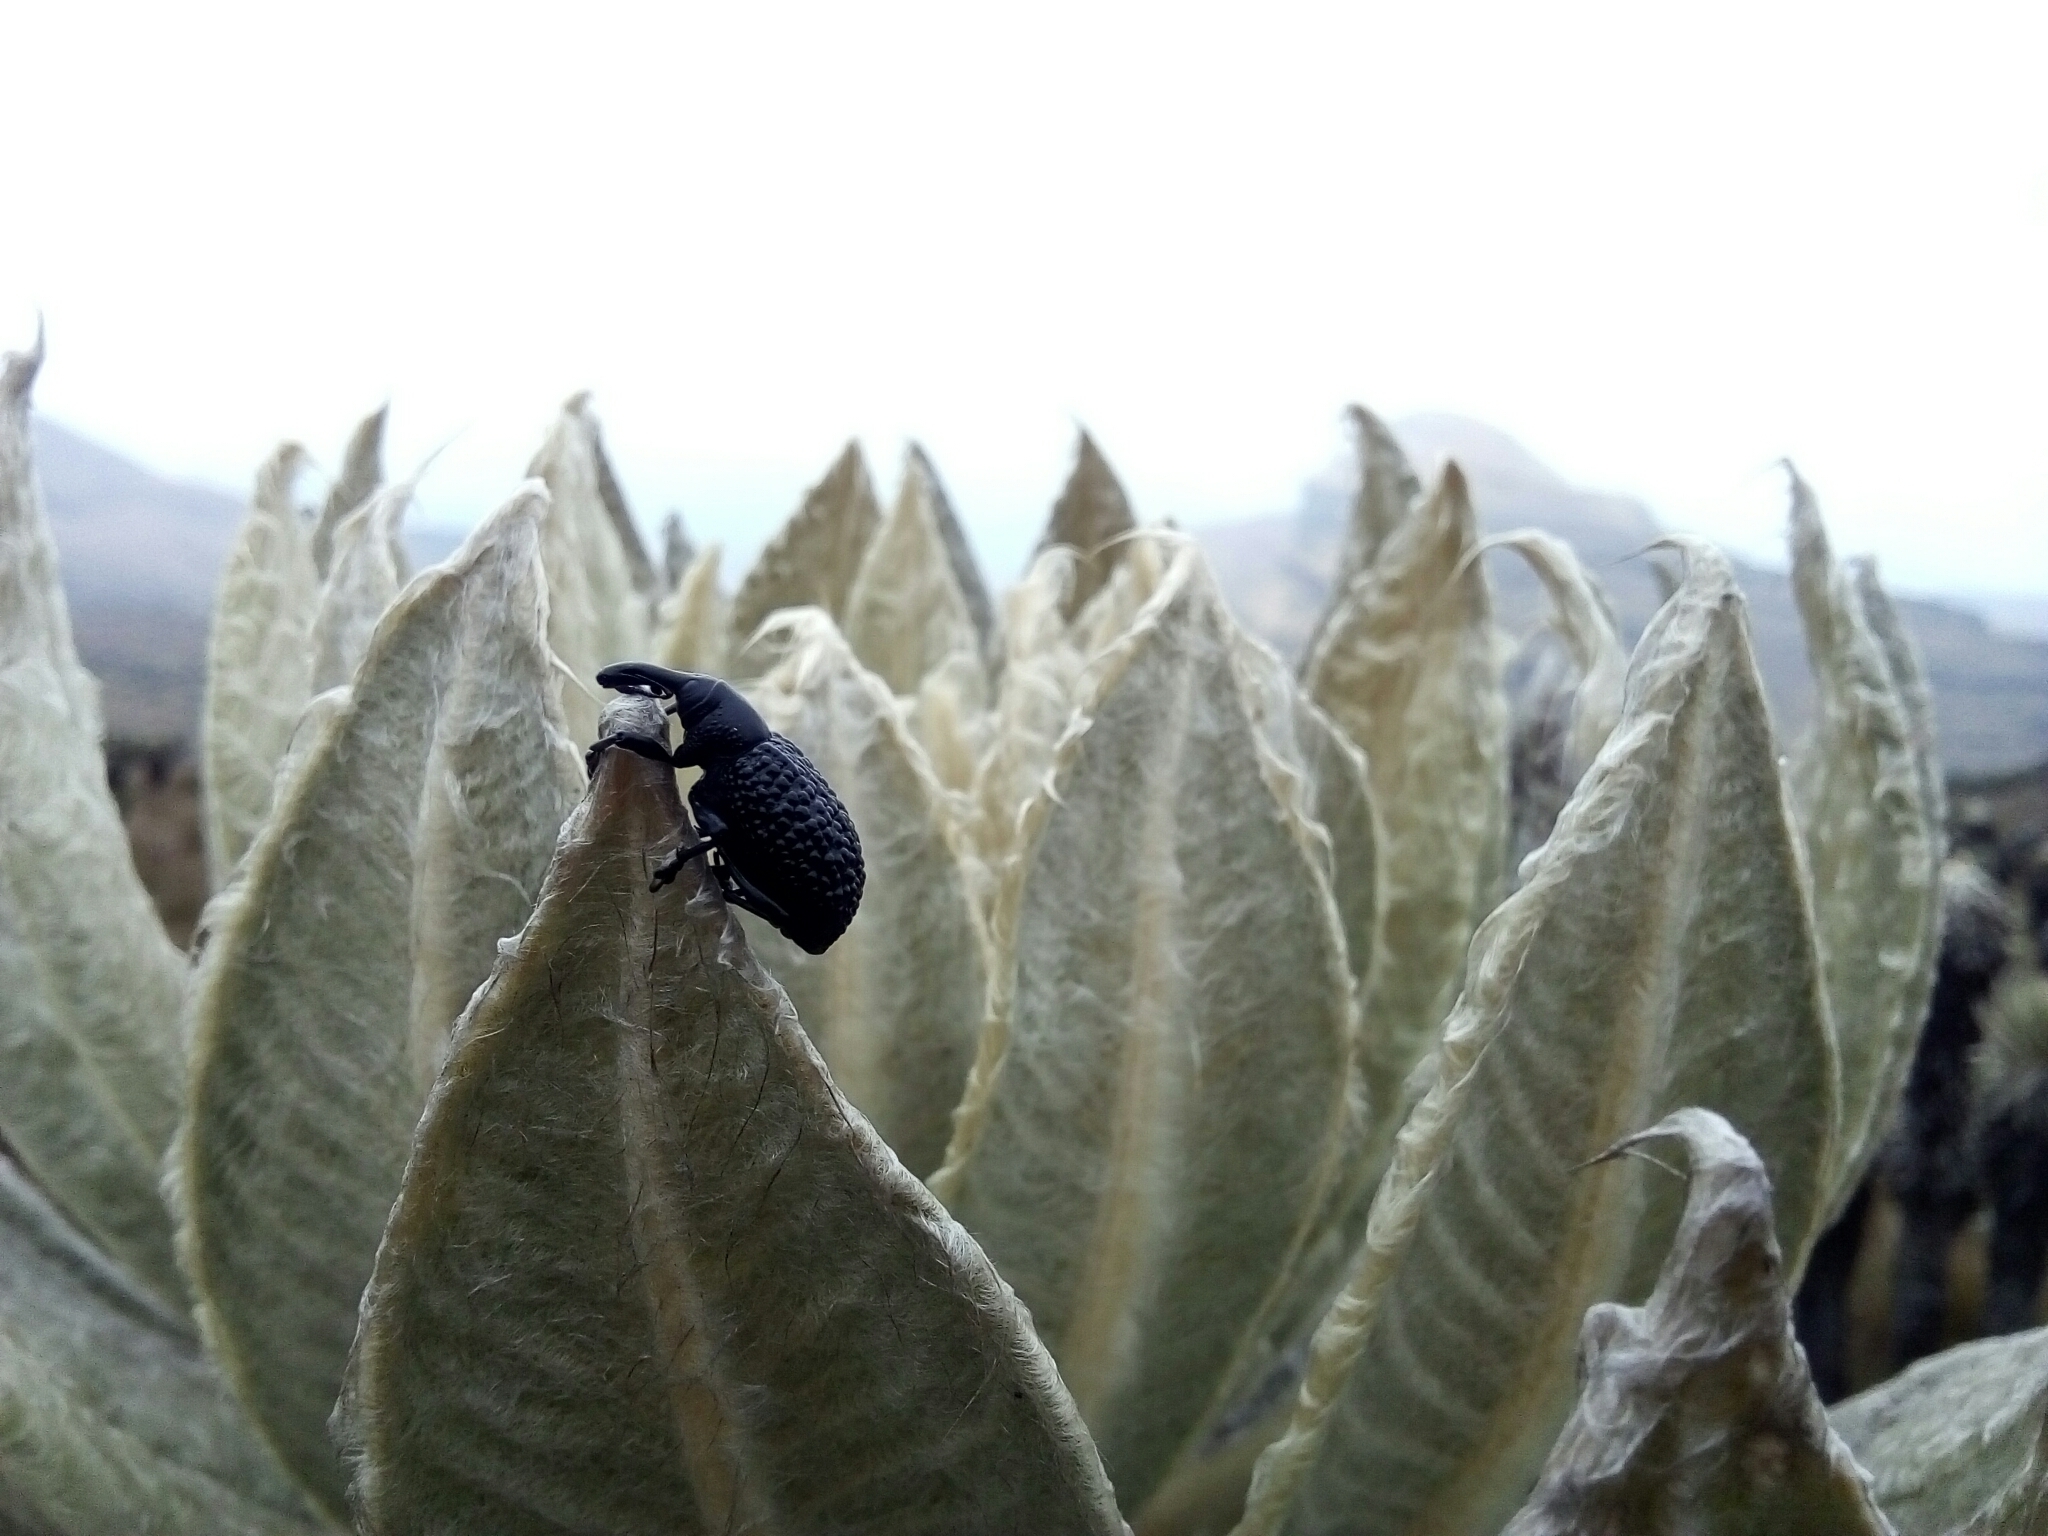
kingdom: Animalia
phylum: Arthropoda
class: Insecta
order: Coleoptera
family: Curculionidae
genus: Plethes
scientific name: Plethes verrucosus
